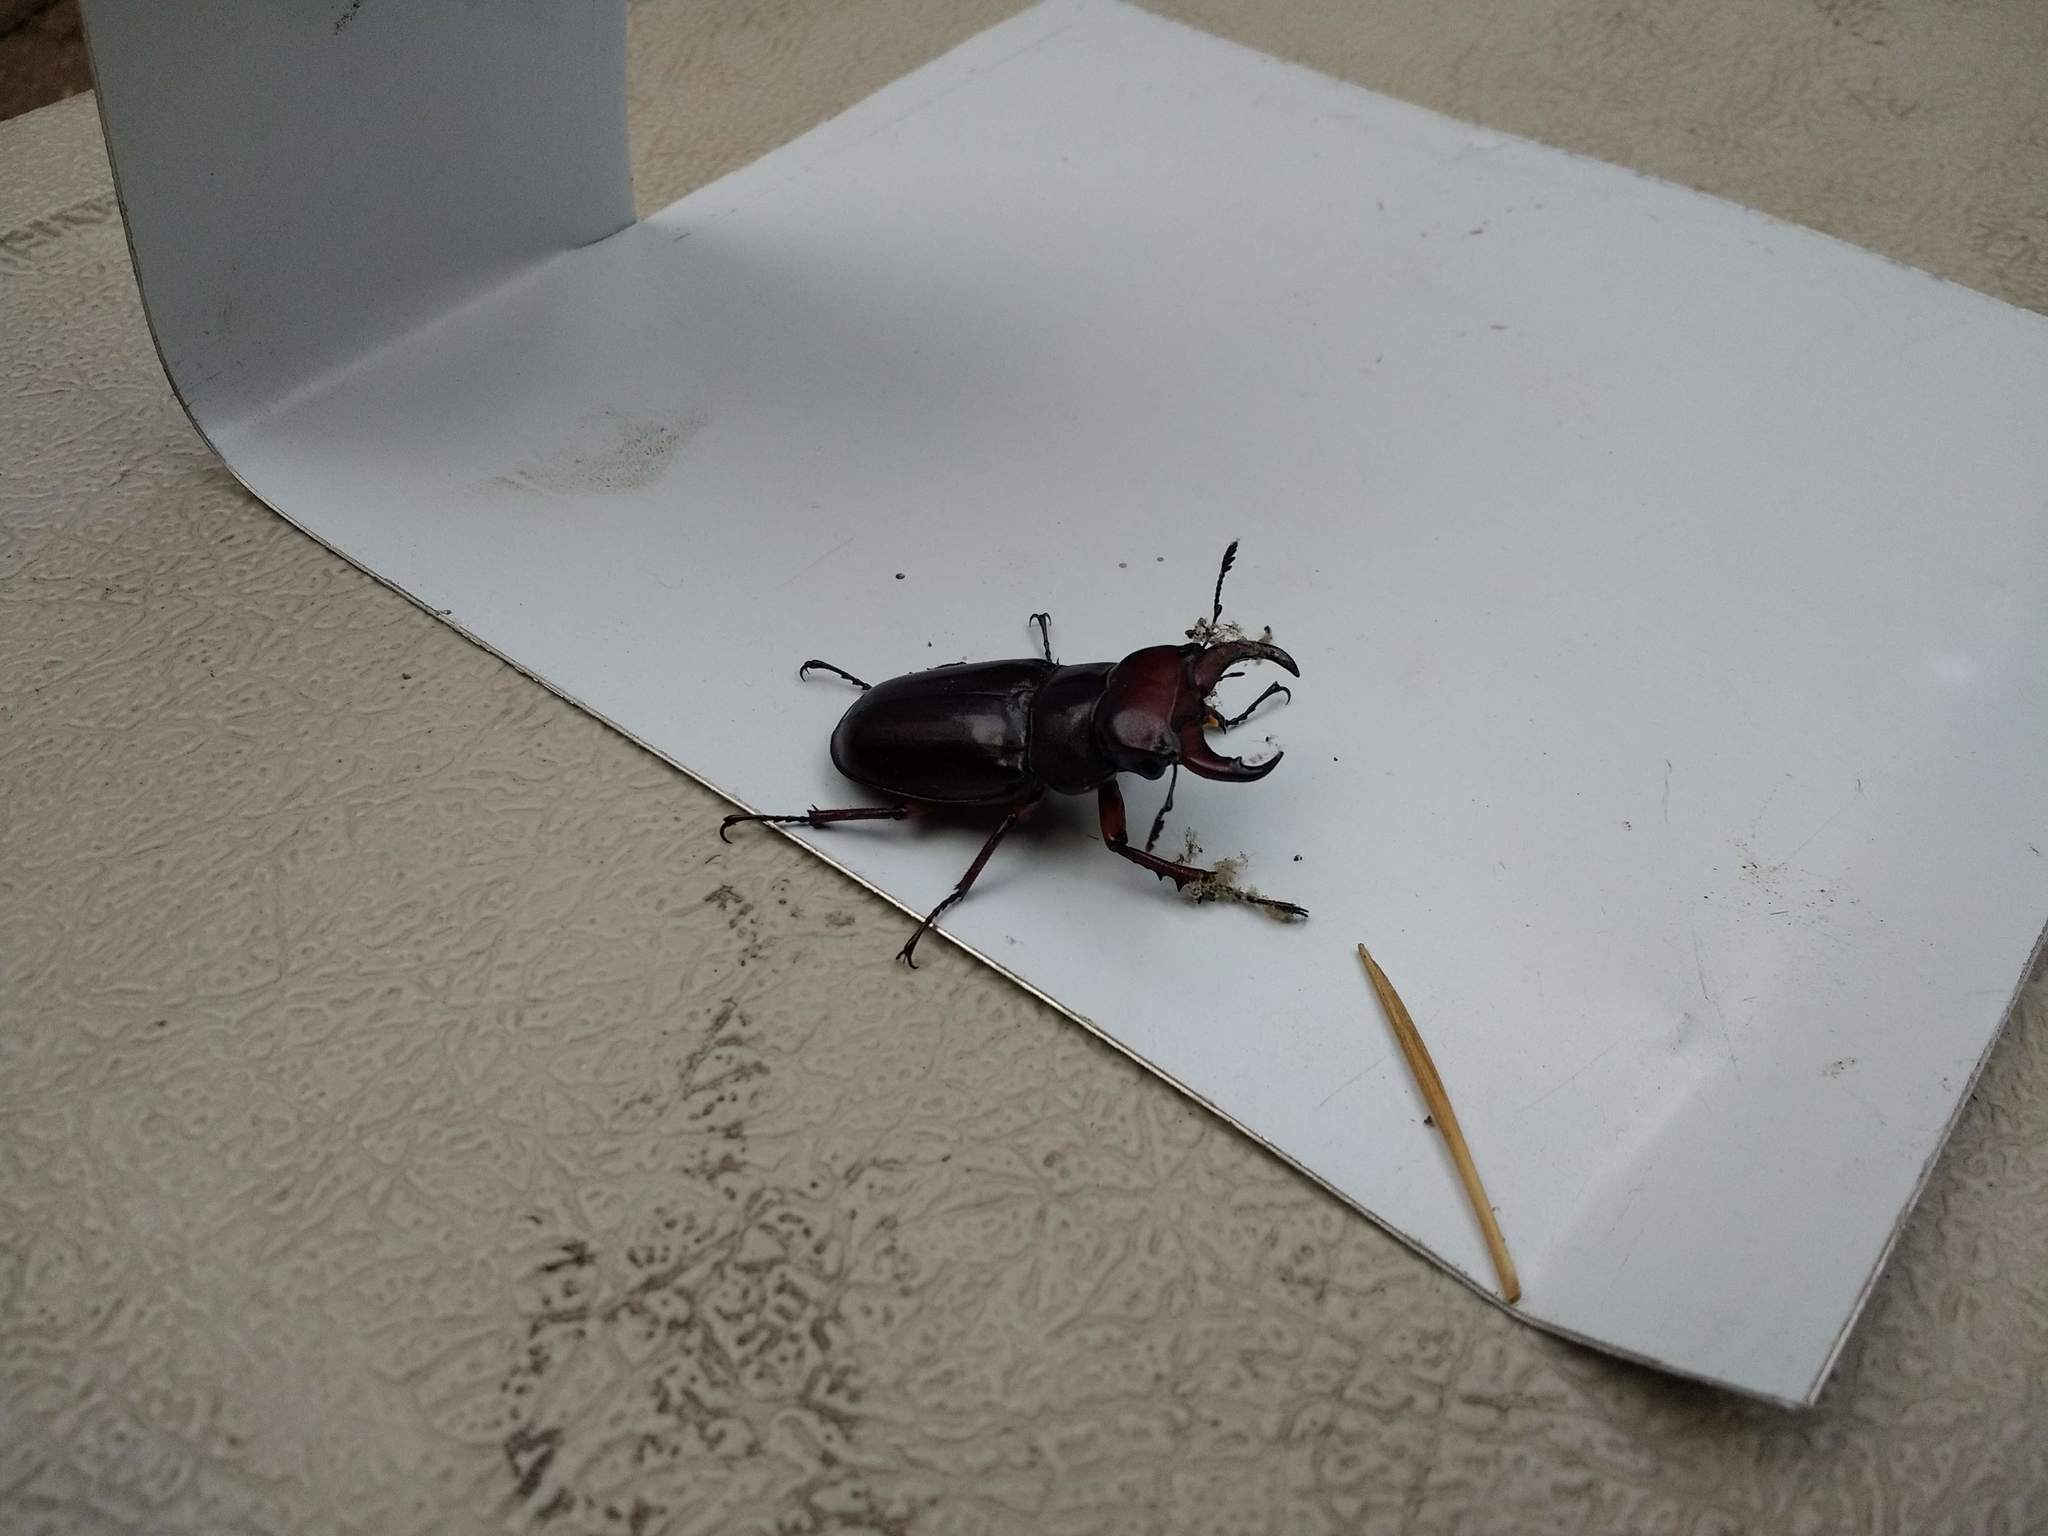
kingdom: Animalia
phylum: Arthropoda
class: Insecta
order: Coleoptera
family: Lucanidae
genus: Lucanus
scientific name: Lucanus capreolus
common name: Stag beetle
